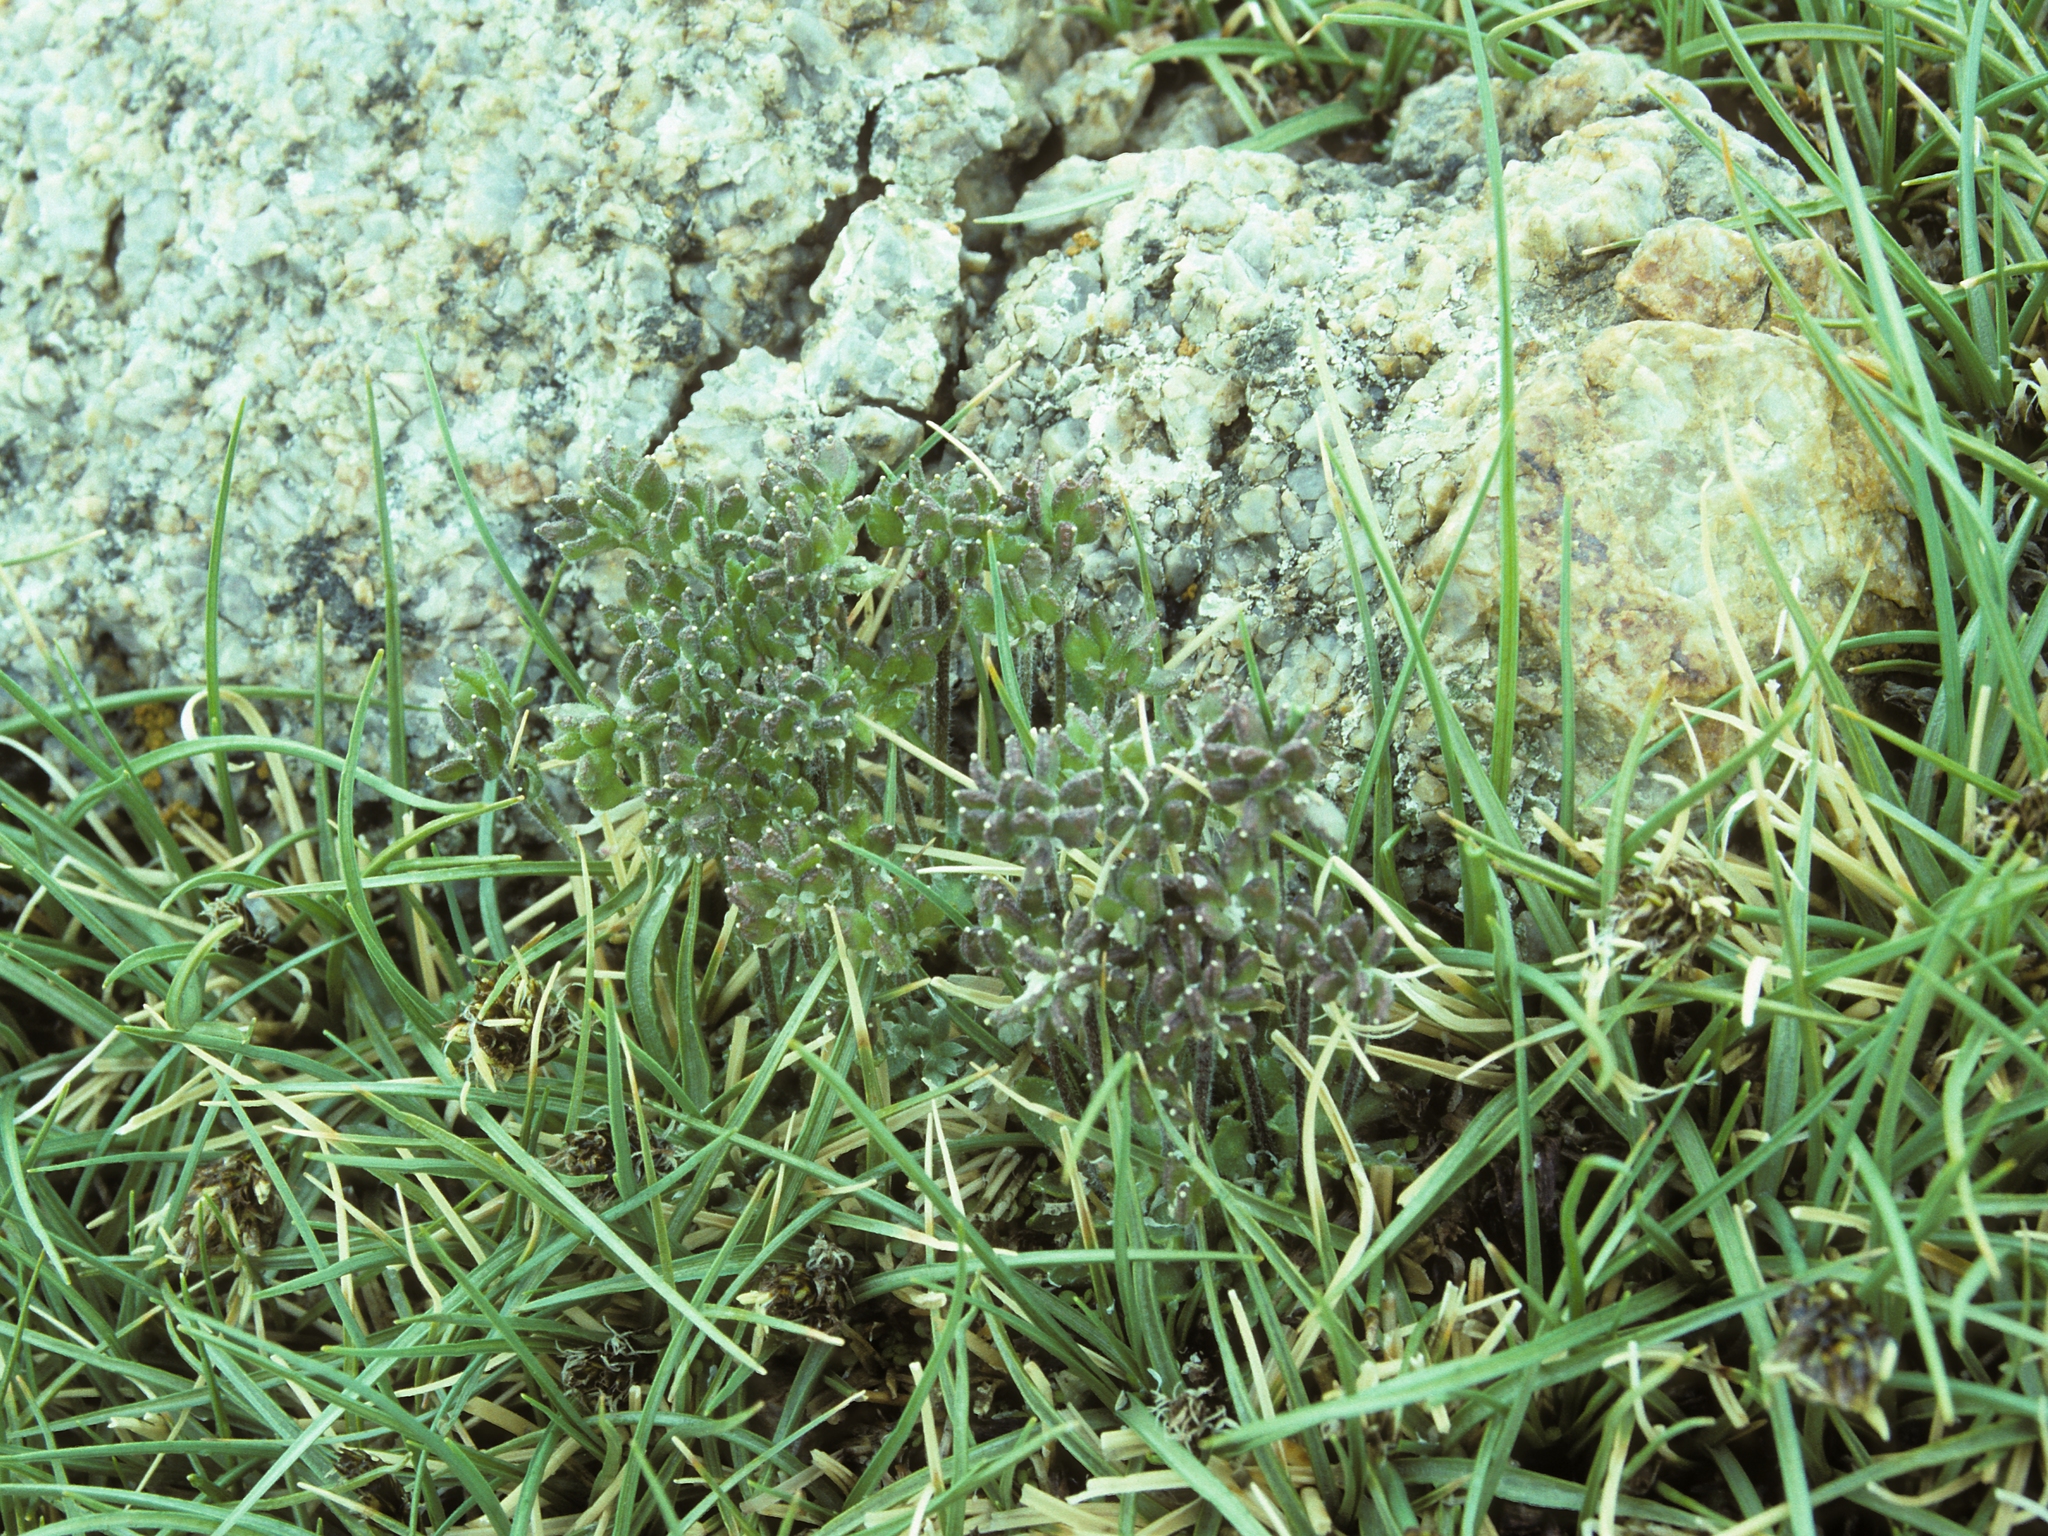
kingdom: Plantae
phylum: Tracheophyta
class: Magnoliopsida
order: Brassicales
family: Brassicaceae
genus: Draba
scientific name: Draba monoensis
